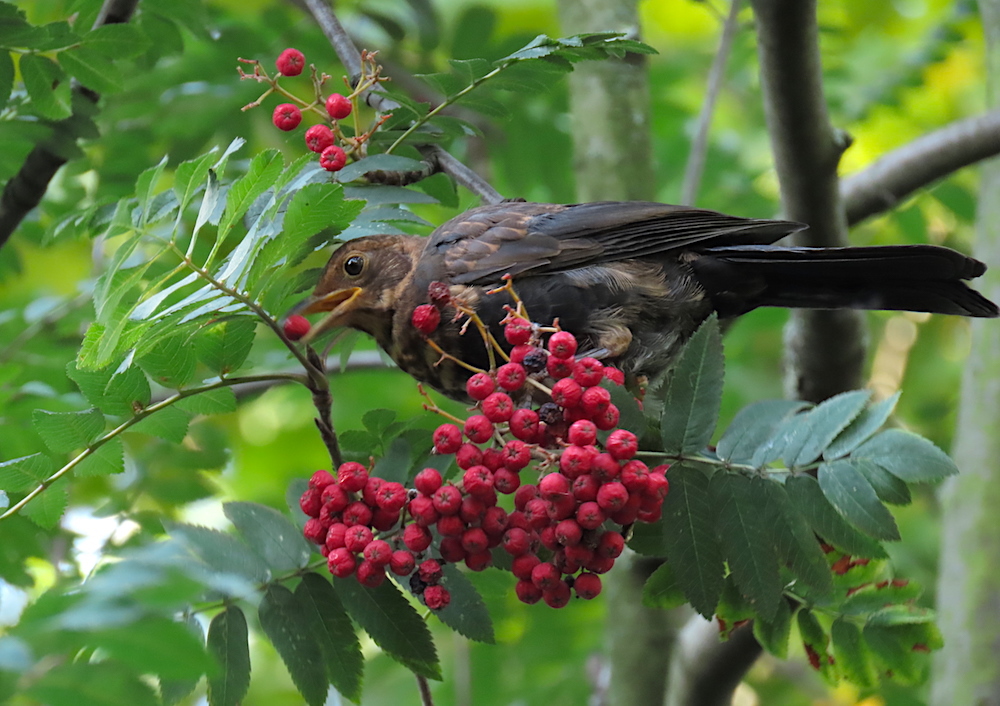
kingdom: Animalia
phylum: Chordata
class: Aves
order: Passeriformes
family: Turdidae
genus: Turdus
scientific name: Turdus merula
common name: Common blackbird
